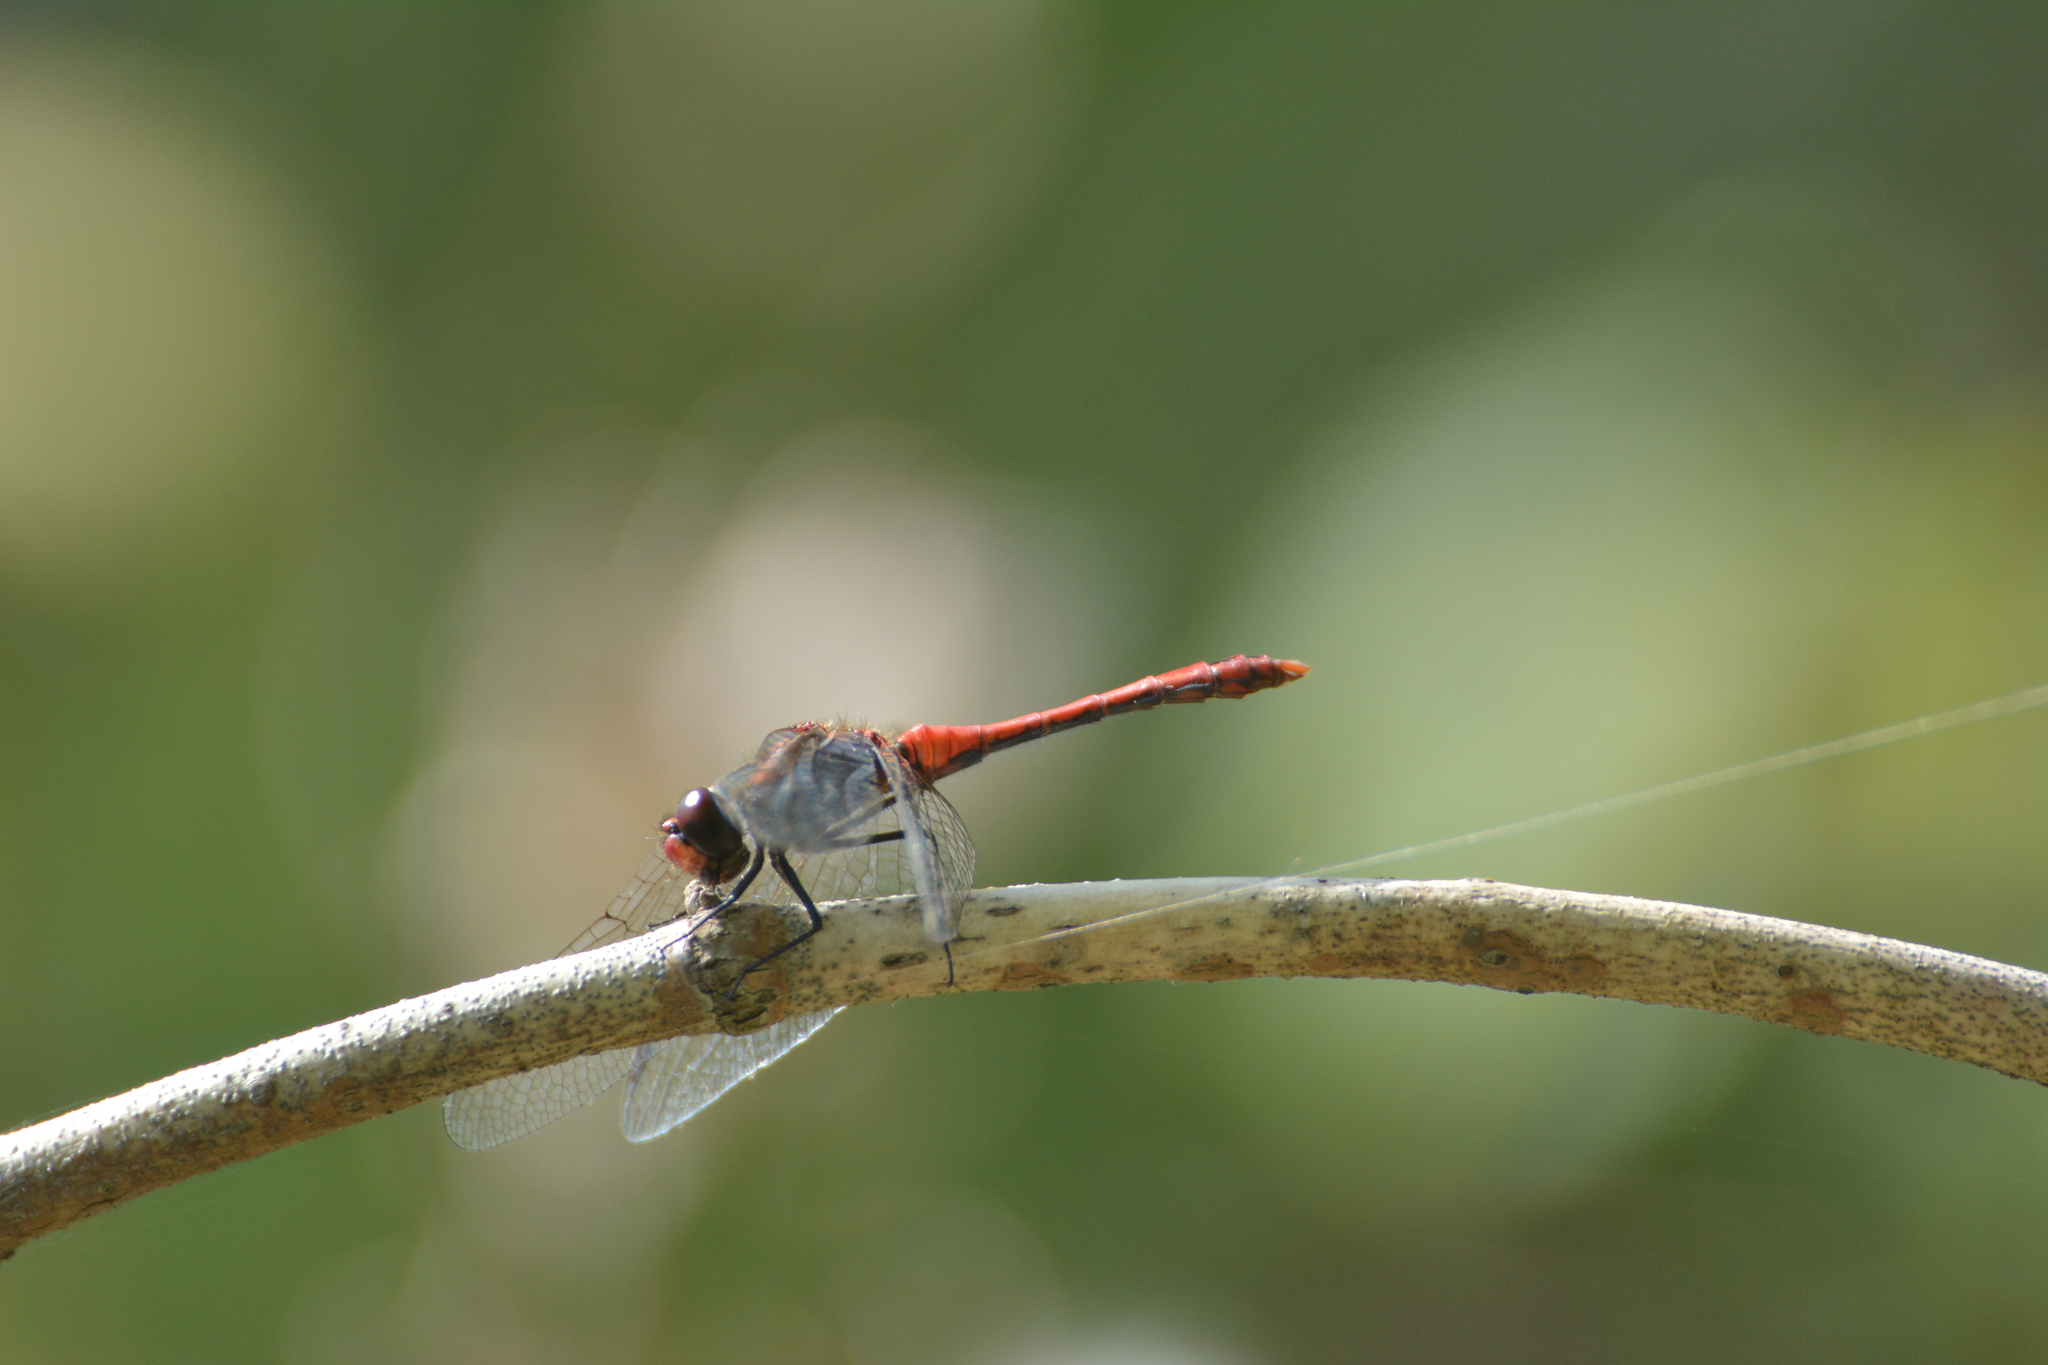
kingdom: Animalia
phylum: Arthropoda
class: Insecta
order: Odonata
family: Libellulidae
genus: Sympetrum
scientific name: Sympetrum sanguineum
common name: Ruddy darter
